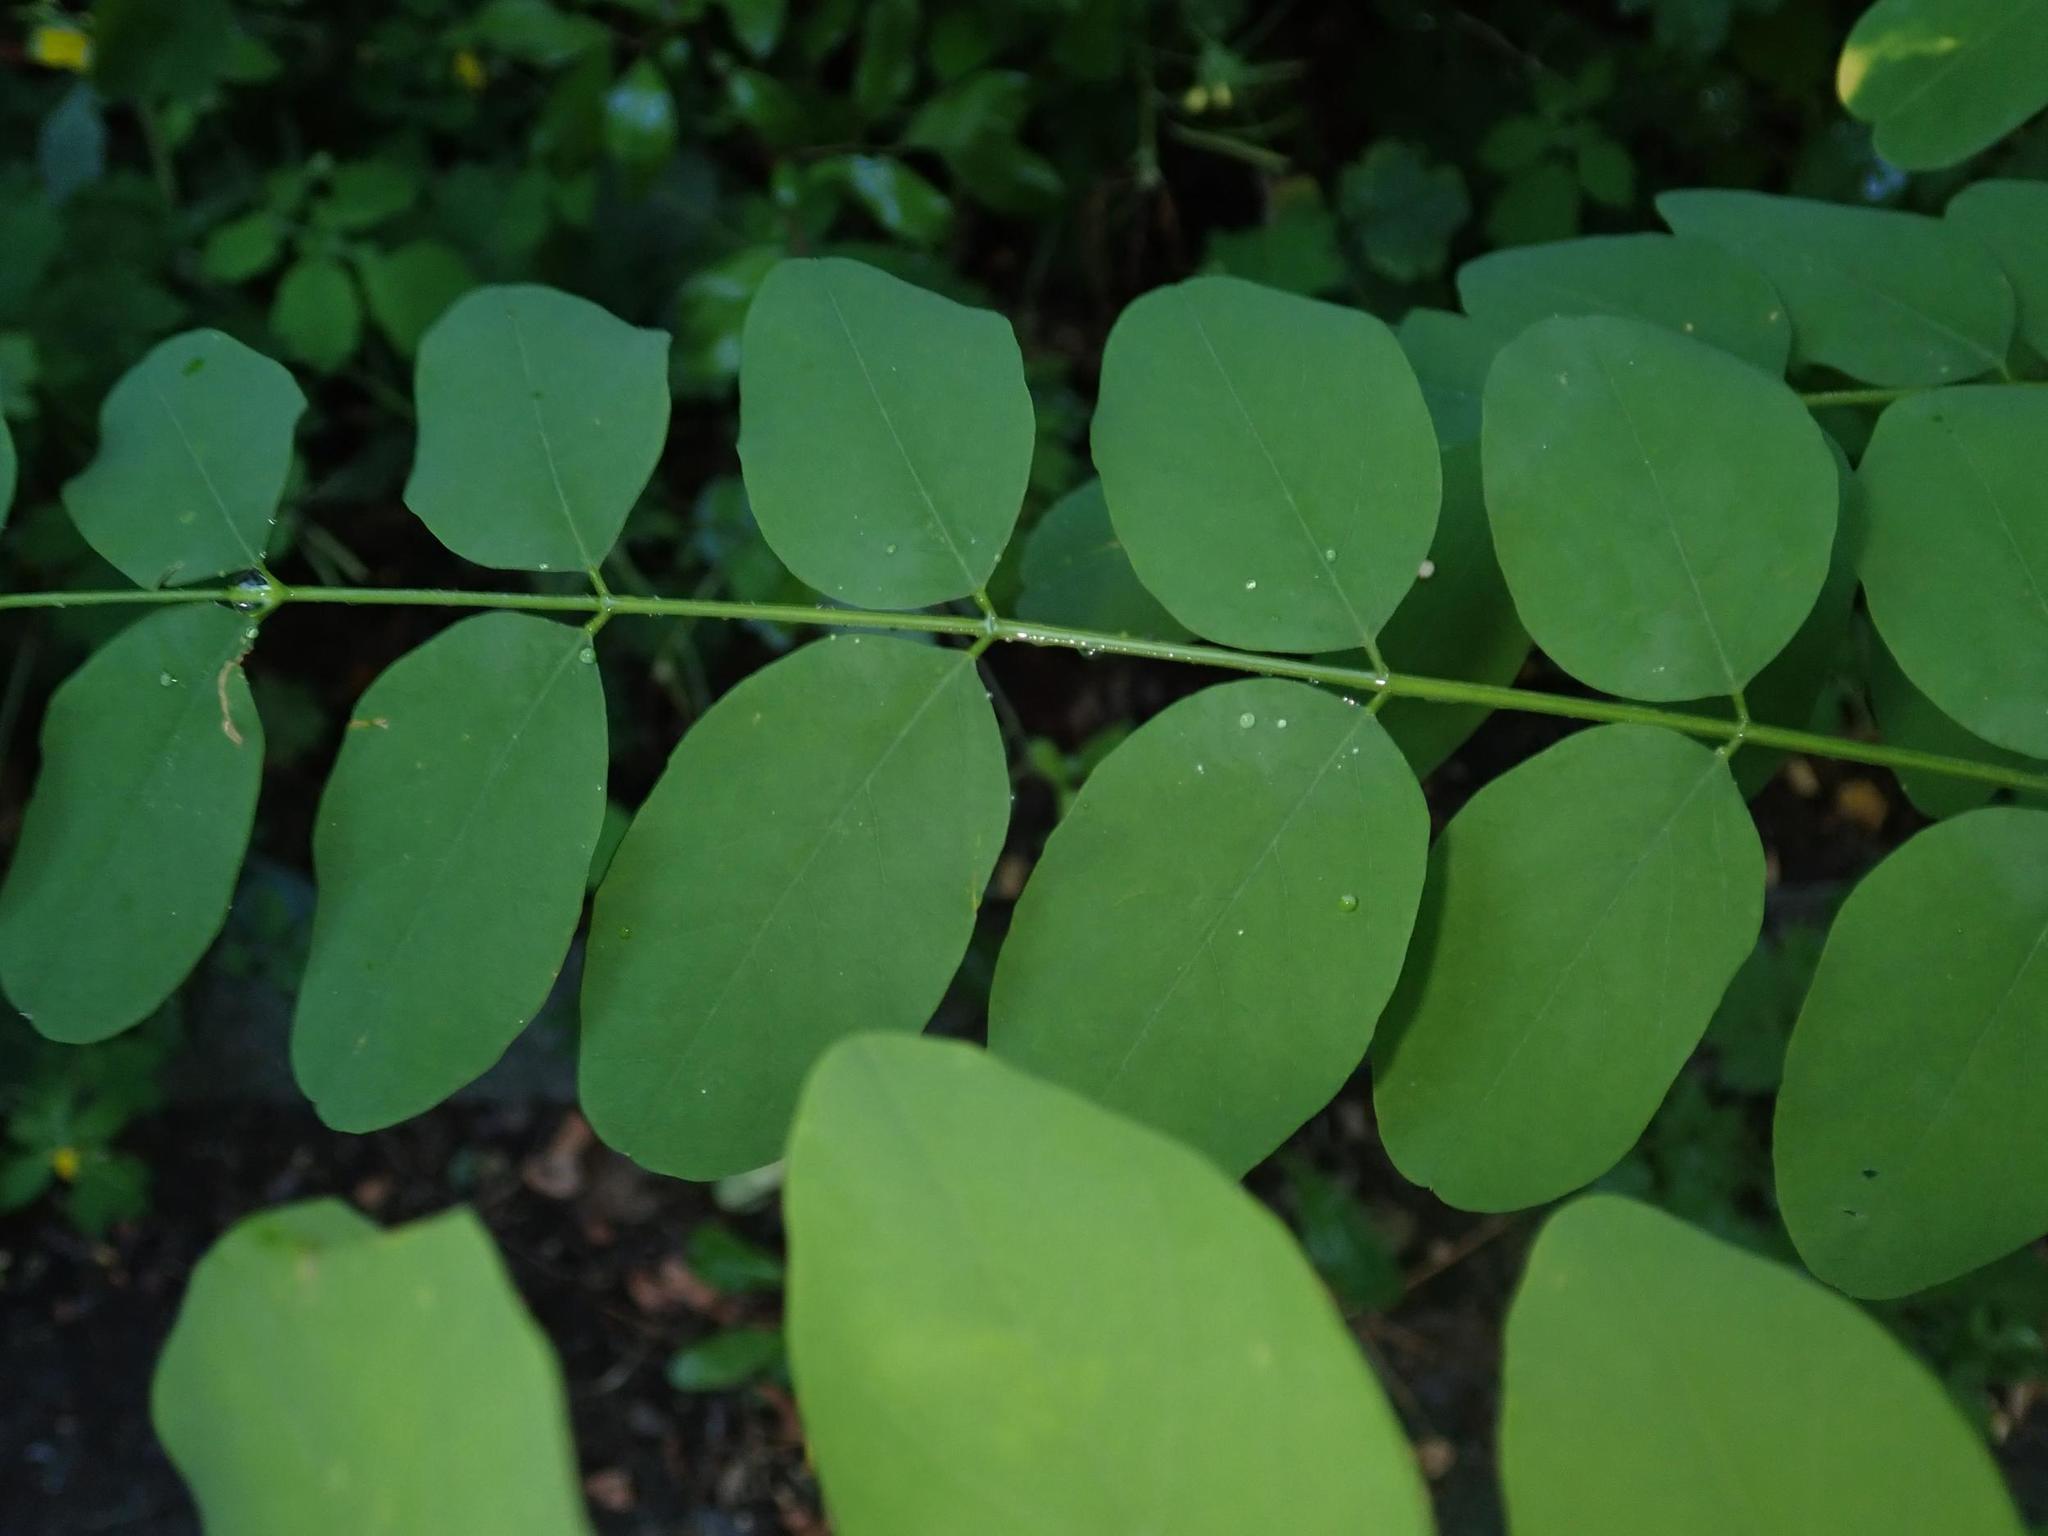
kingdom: Plantae
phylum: Tracheophyta
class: Magnoliopsida
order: Fabales
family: Fabaceae
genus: Robinia
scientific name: Robinia pseudoacacia
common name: Black locust
